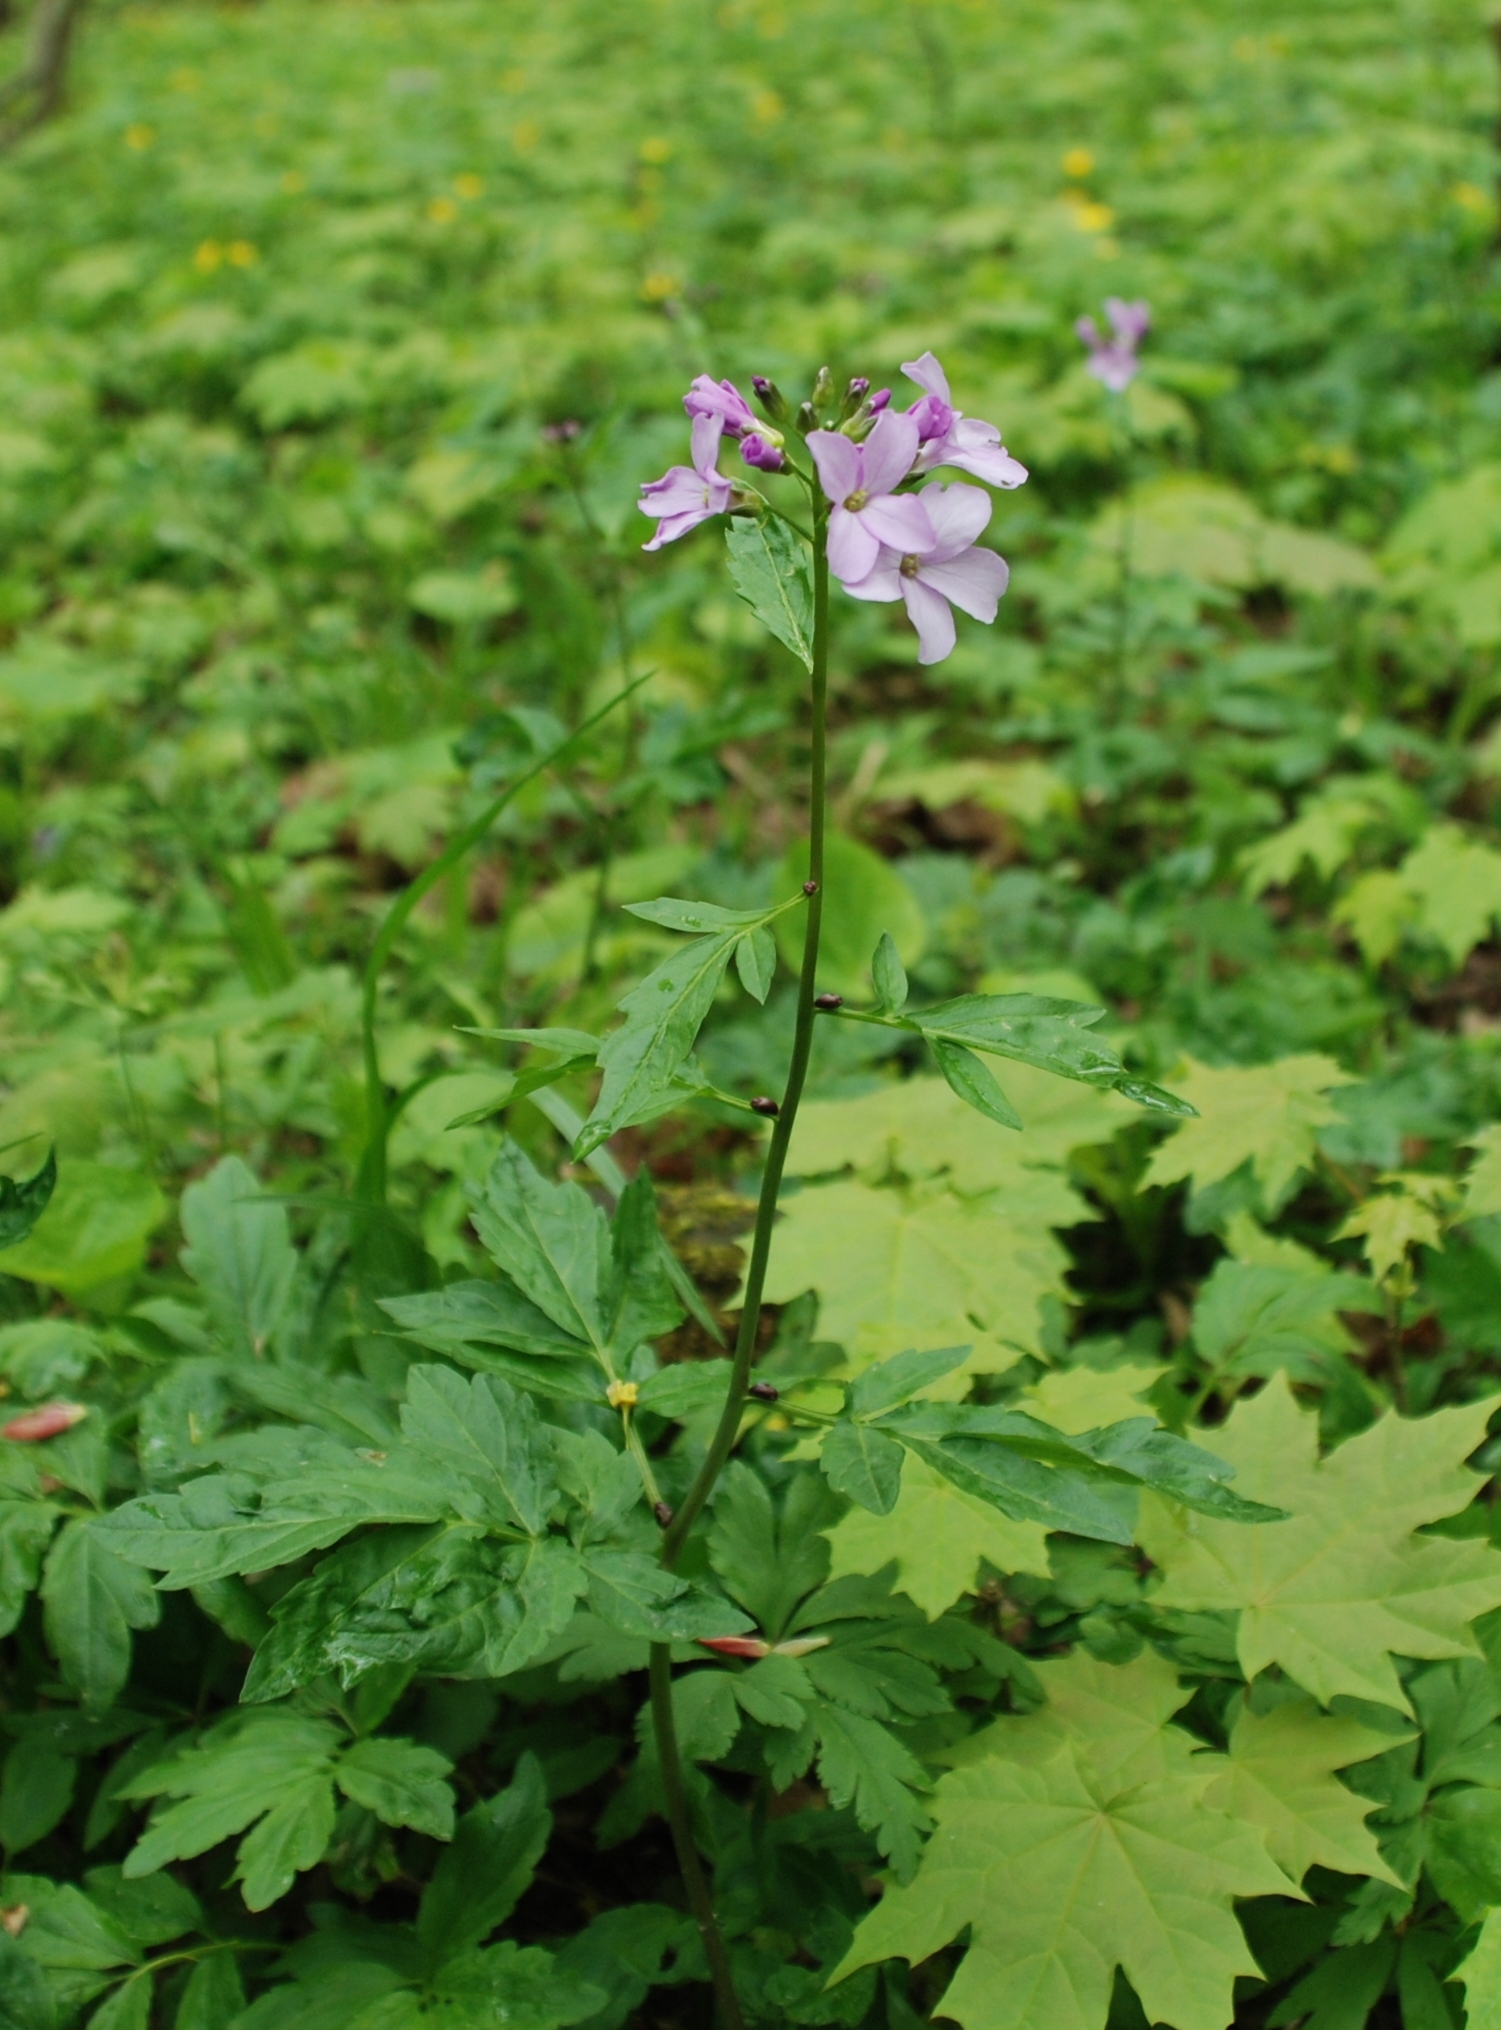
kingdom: Plantae
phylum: Tracheophyta
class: Magnoliopsida
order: Brassicales
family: Brassicaceae
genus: Cardamine
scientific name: Cardamine bulbifera
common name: Coralroot bittercress
